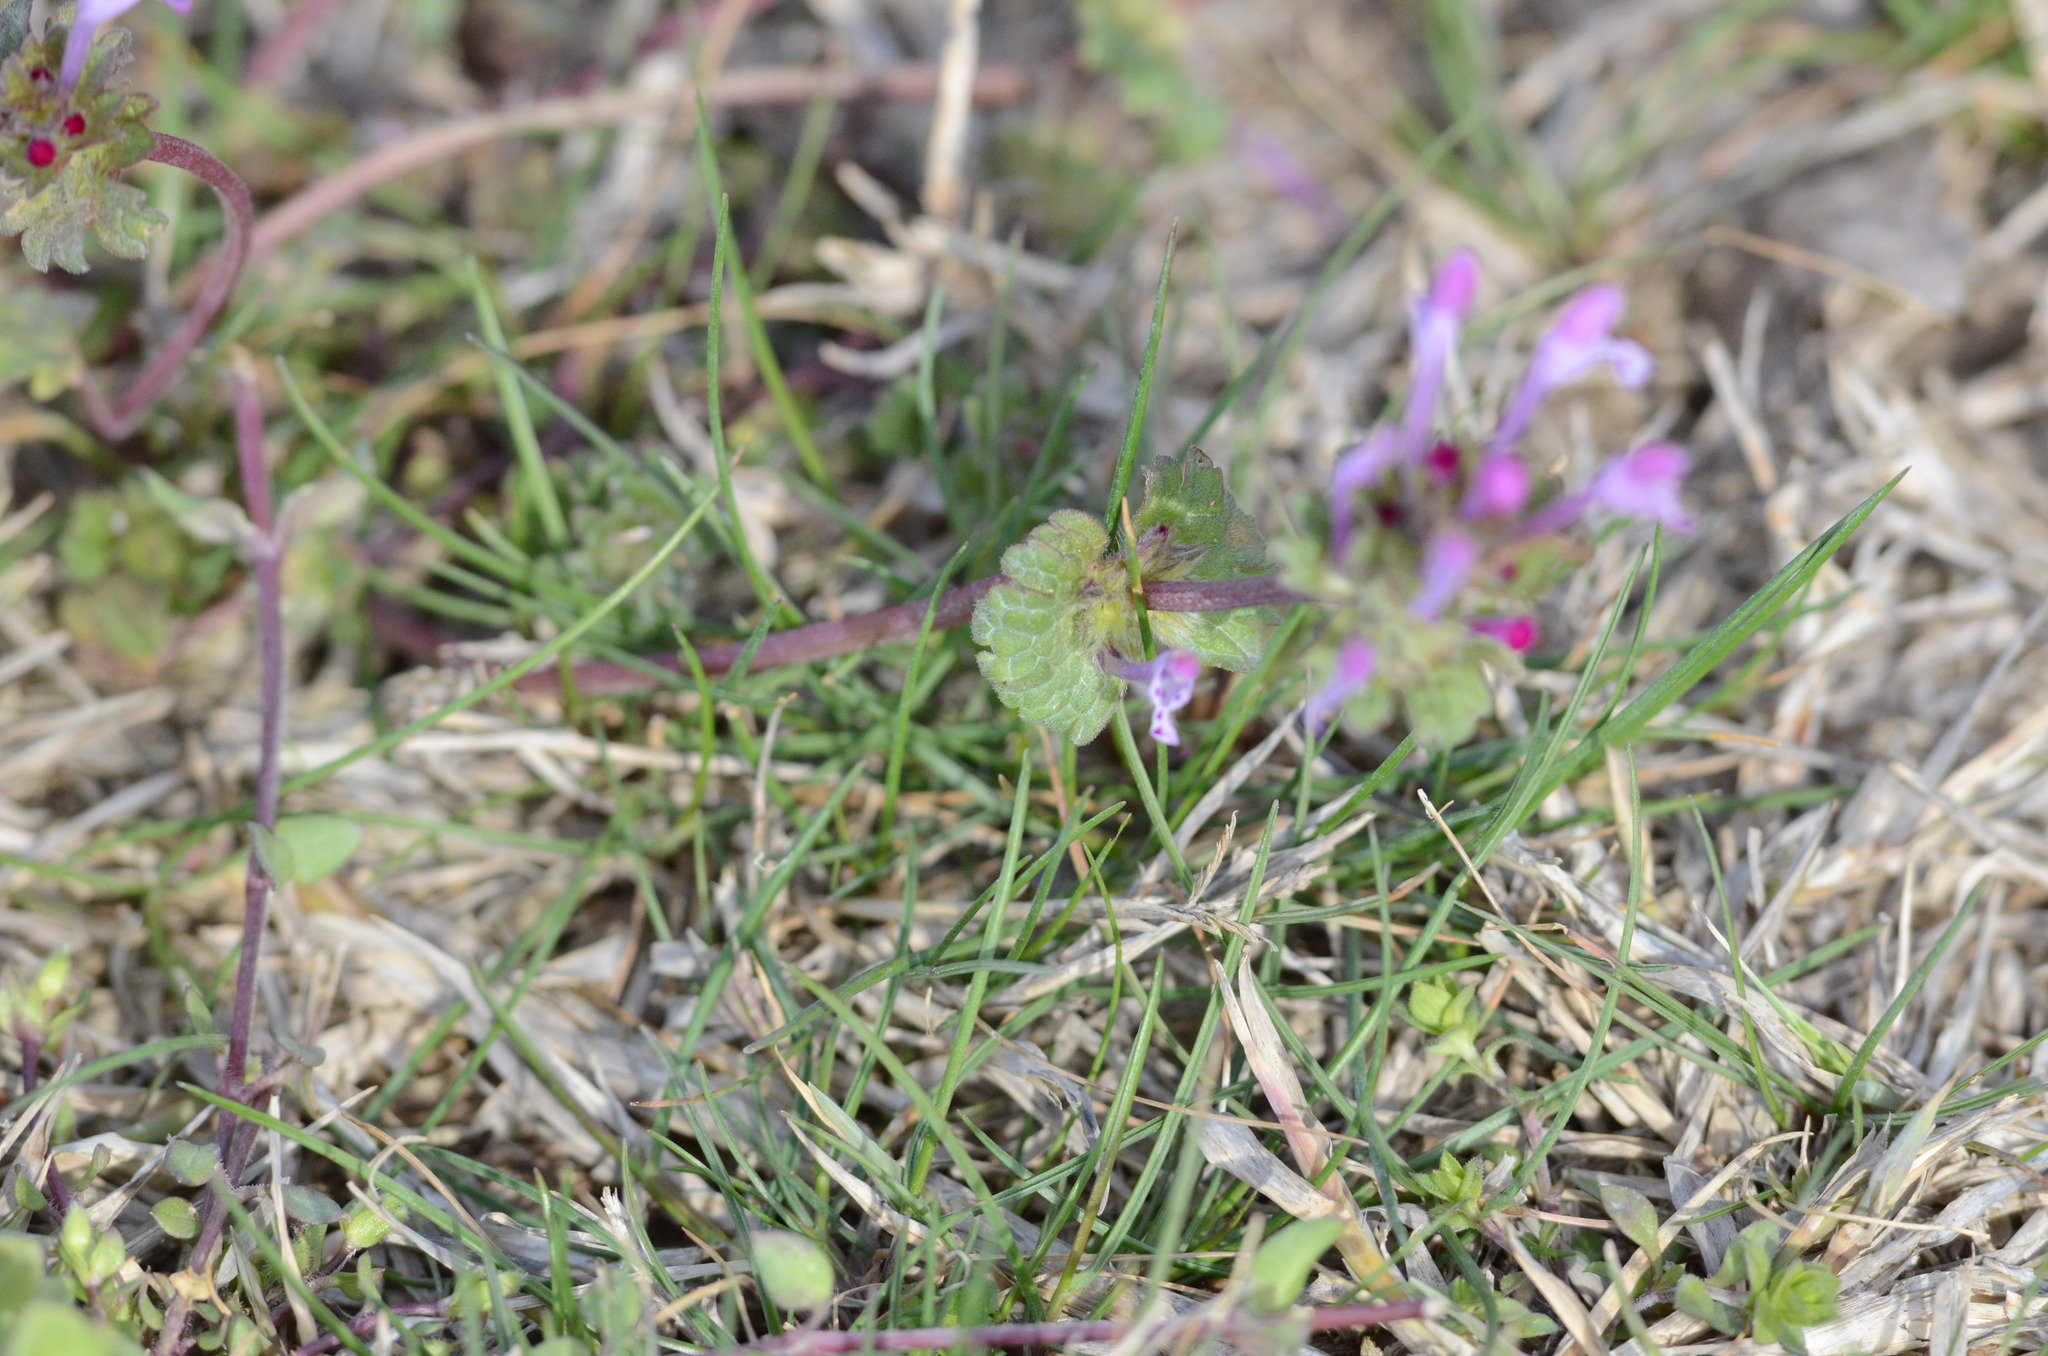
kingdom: Plantae
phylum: Tracheophyta
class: Magnoliopsida
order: Lamiales
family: Lamiaceae
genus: Lamium
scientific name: Lamium amplexicaule
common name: Henbit dead-nettle
